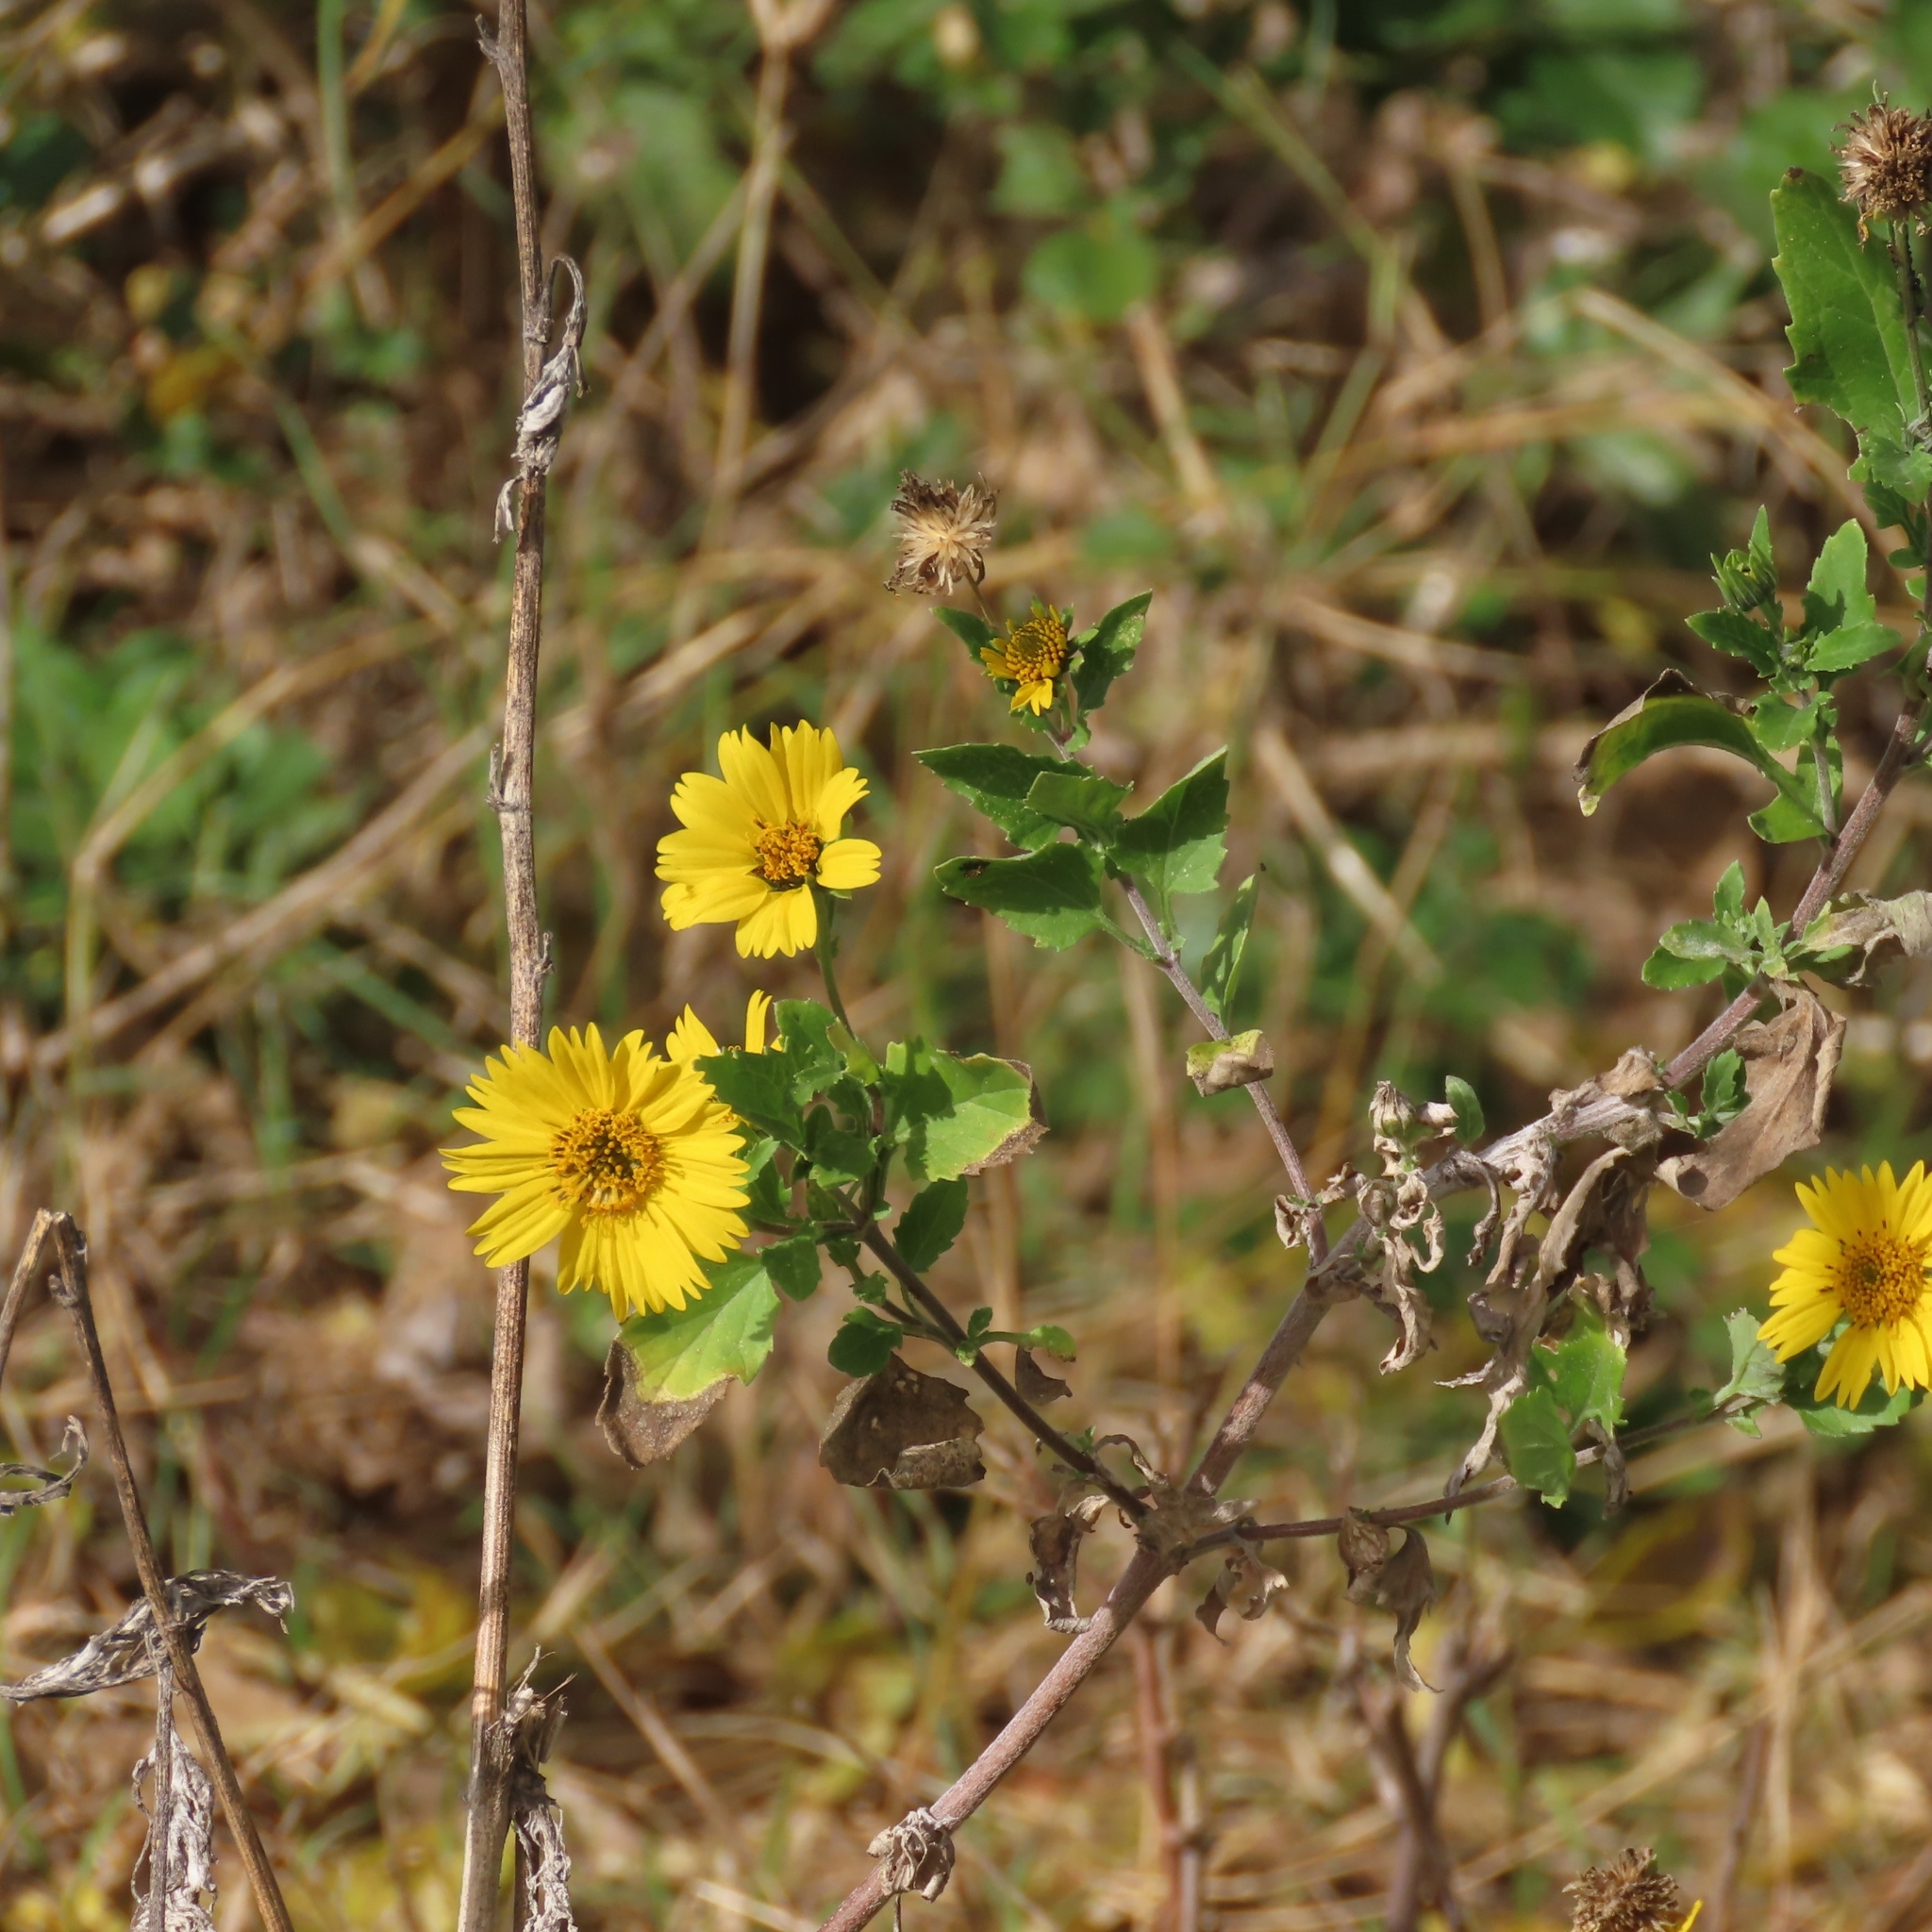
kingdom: Plantae
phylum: Tracheophyta
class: Magnoliopsida
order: Asterales
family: Asteraceae
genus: Verbesina
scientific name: Verbesina encelioides
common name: Golden crownbeard
